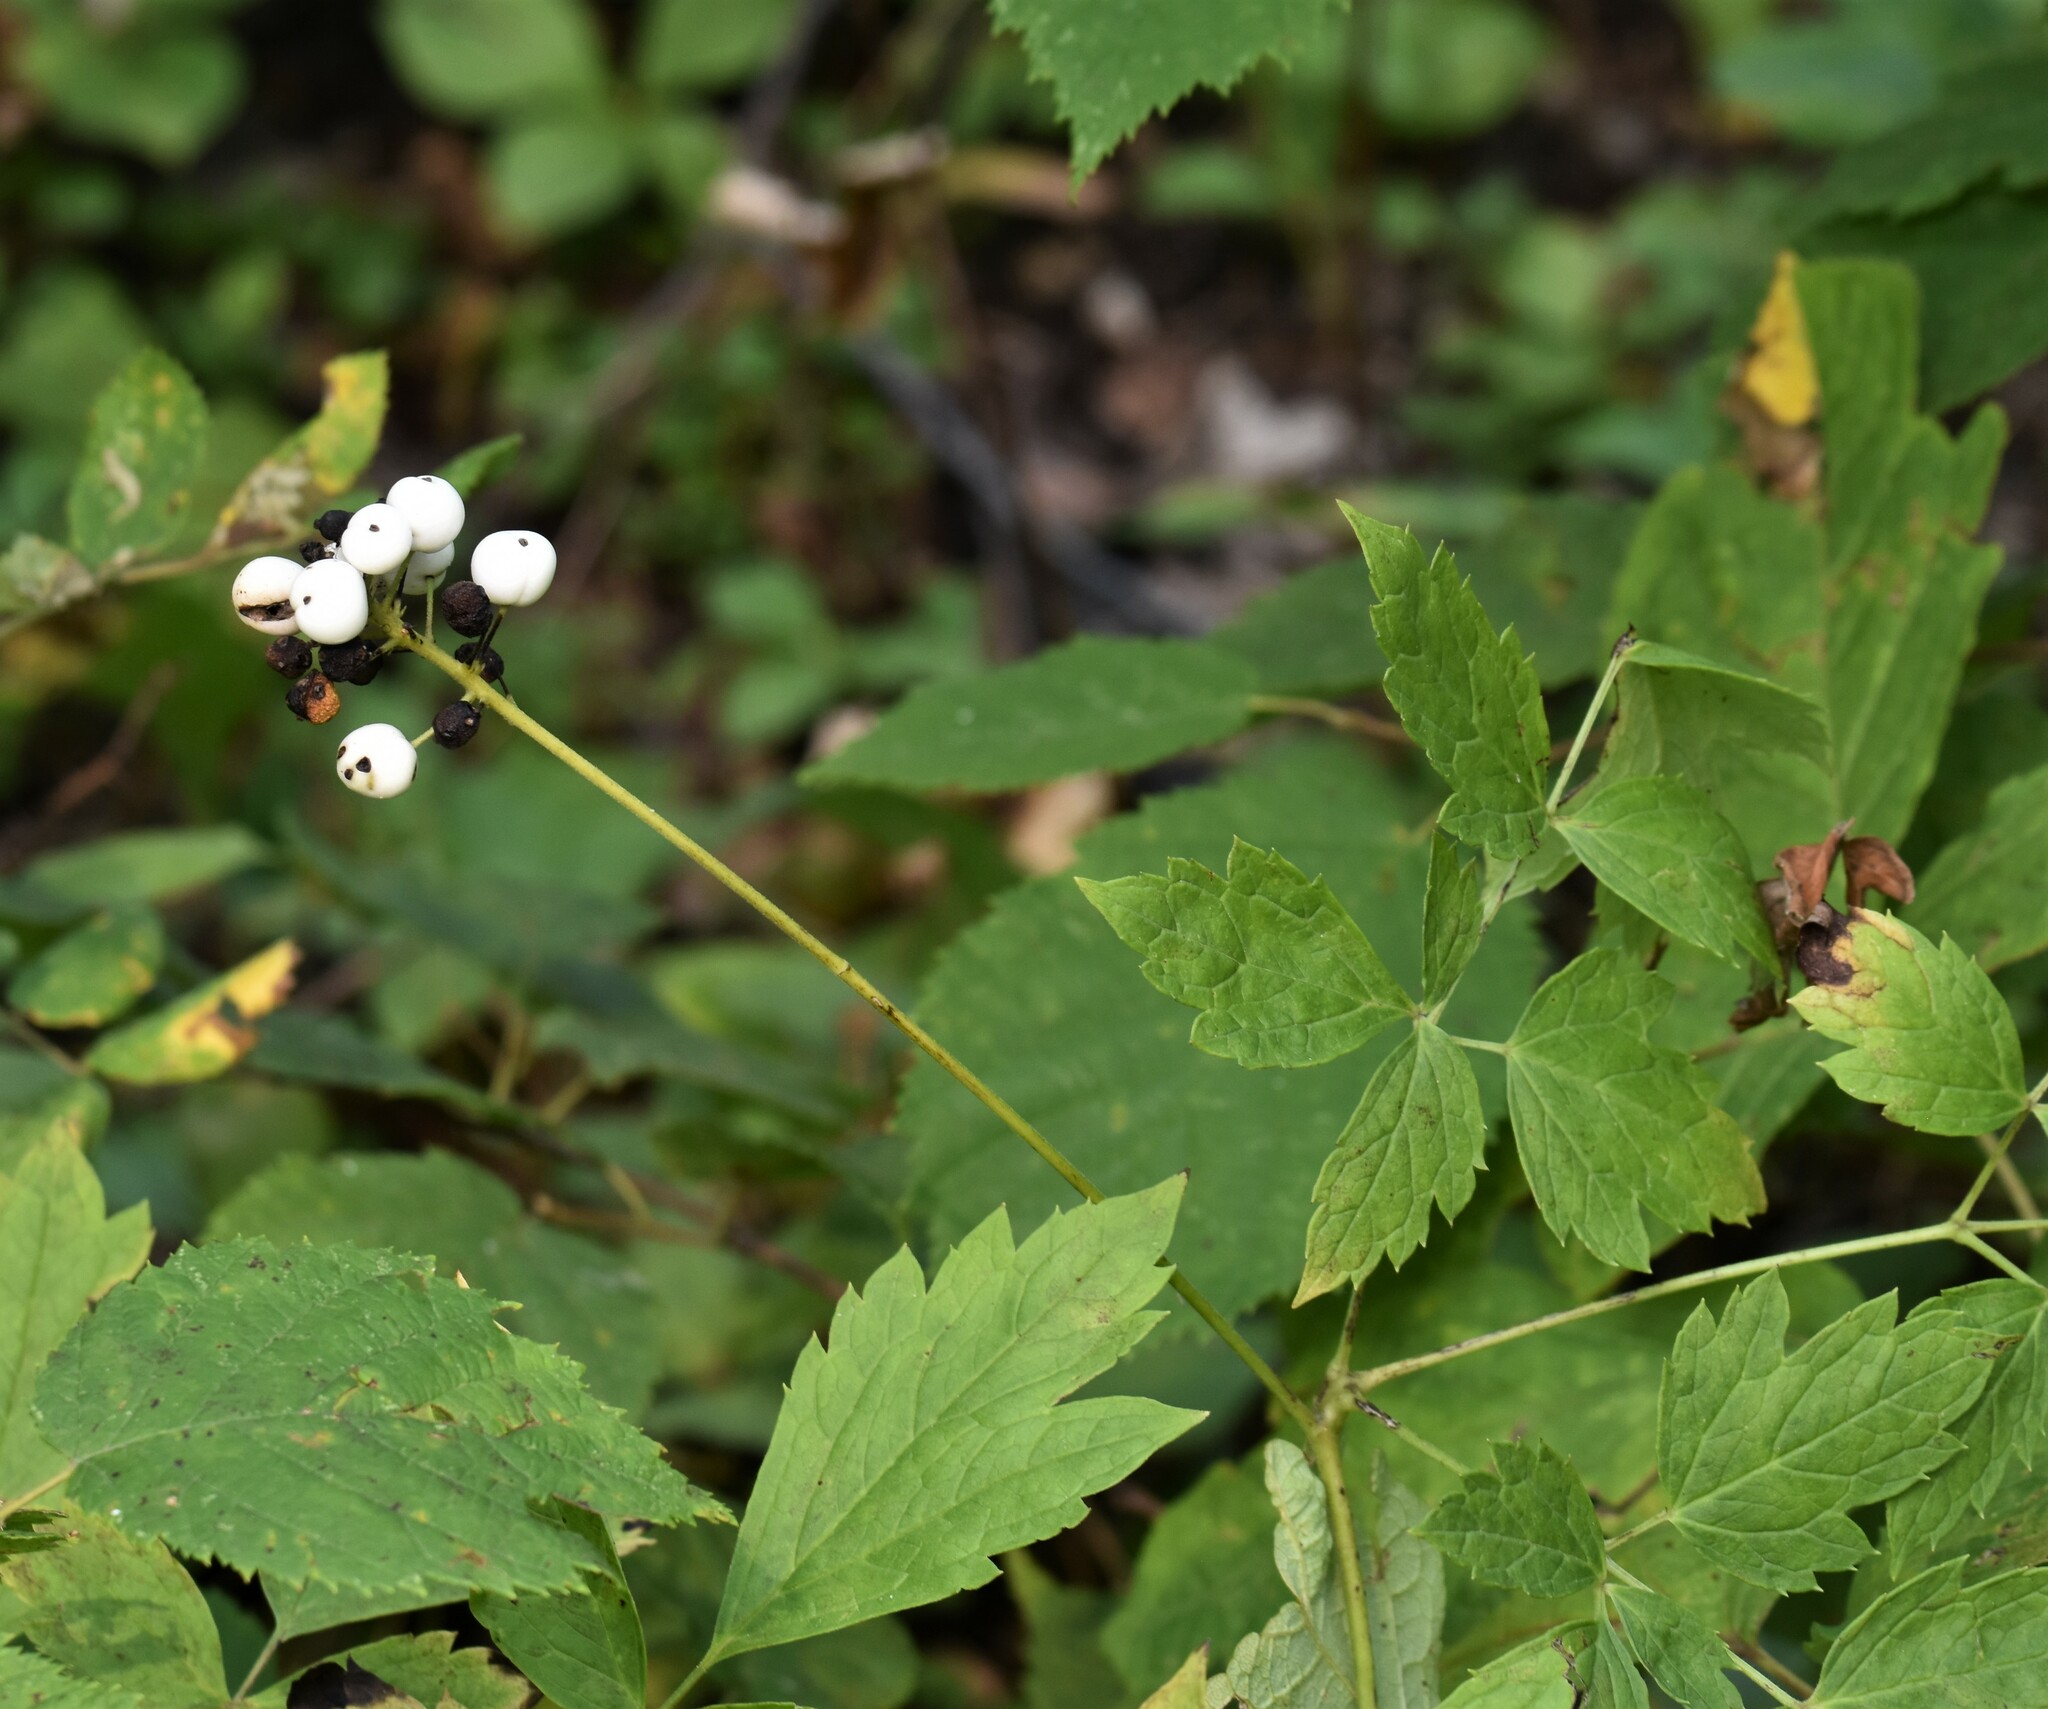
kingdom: Plantae
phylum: Tracheophyta
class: Magnoliopsida
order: Ranunculales
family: Ranunculaceae
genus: Actaea
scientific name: Actaea rubra
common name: Red baneberry
